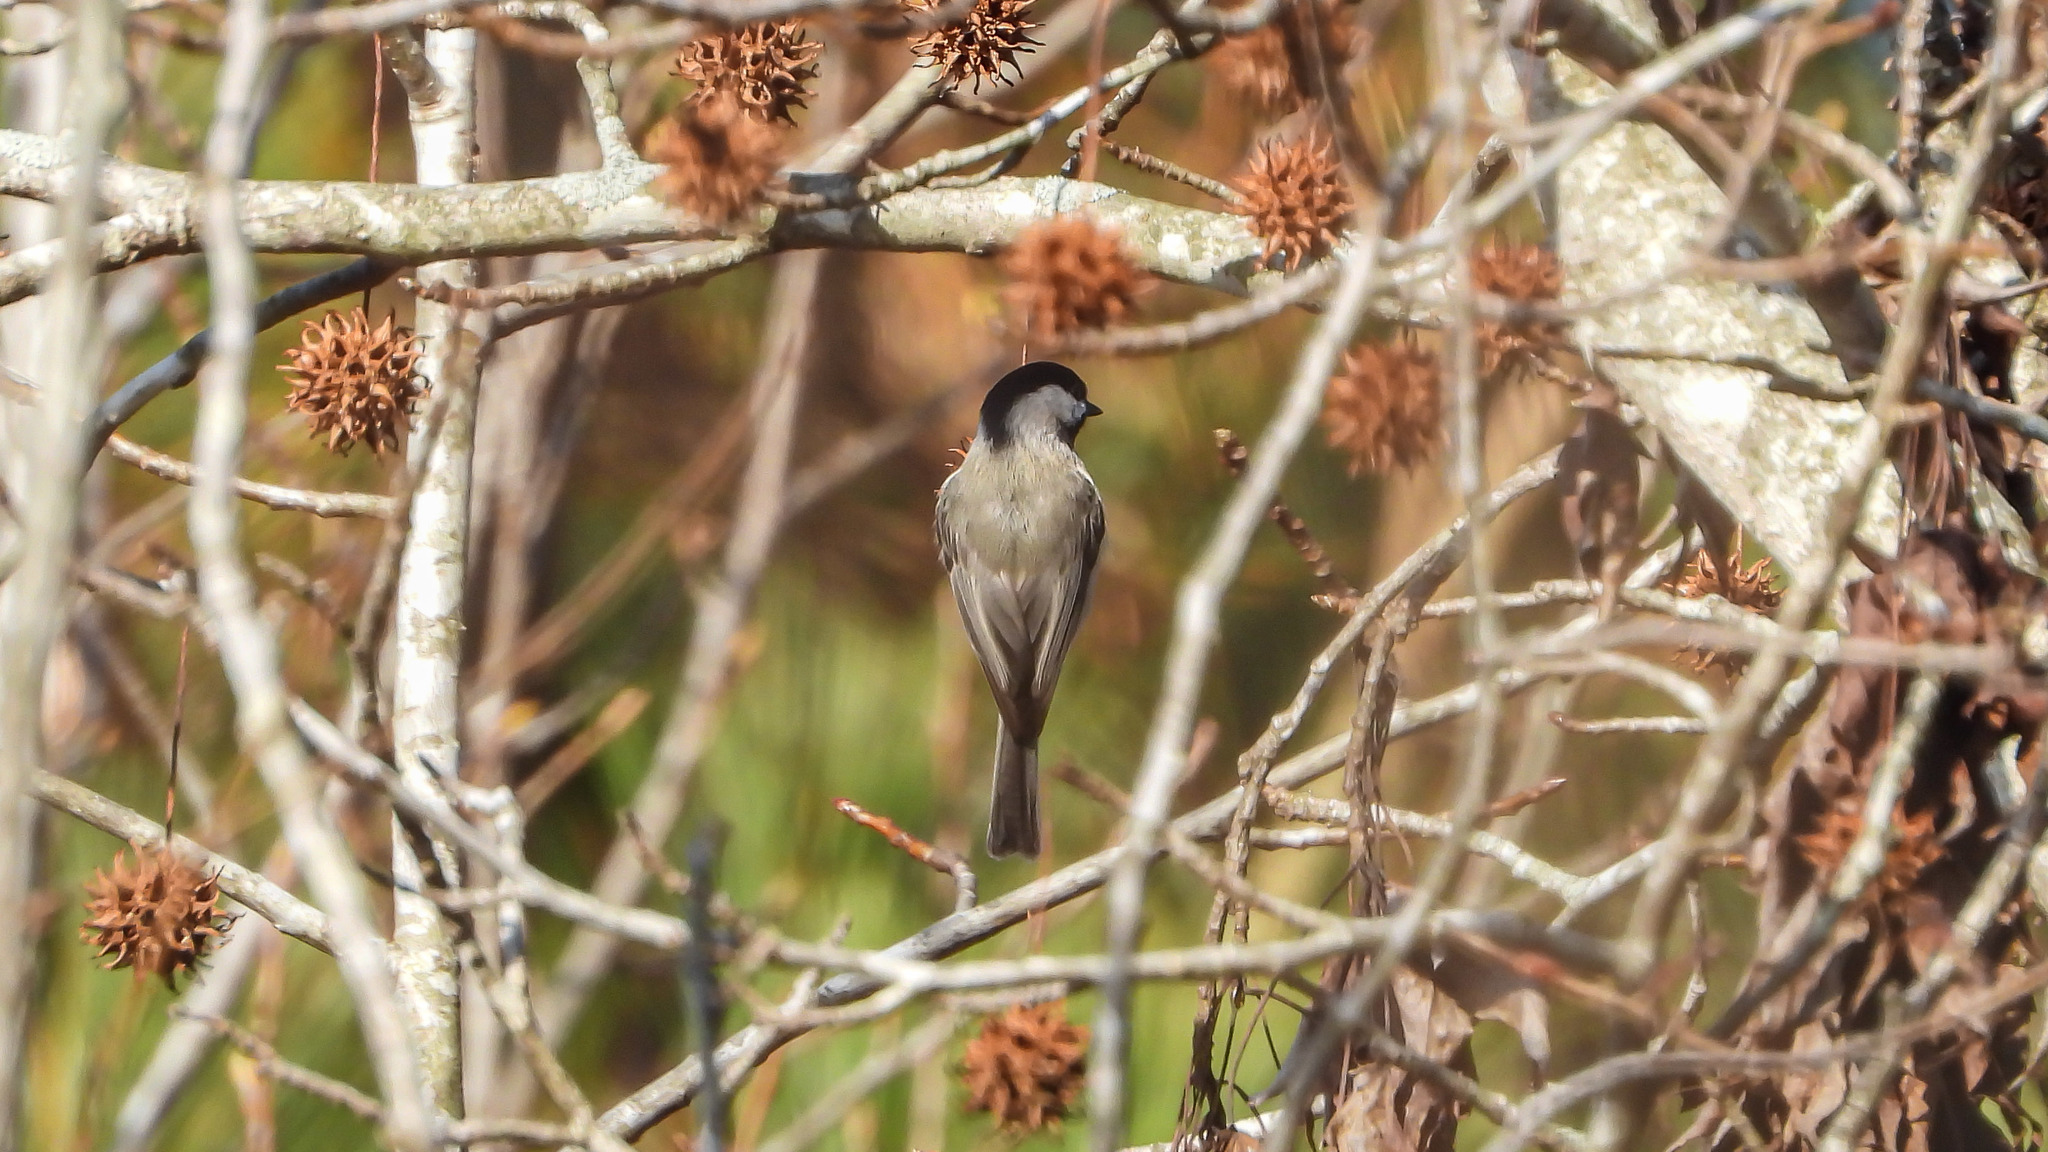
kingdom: Animalia
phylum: Chordata
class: Aves
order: Passeriformes
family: Paridae
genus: Poecile
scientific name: Poecile carolinensis
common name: Carolina chickadee
